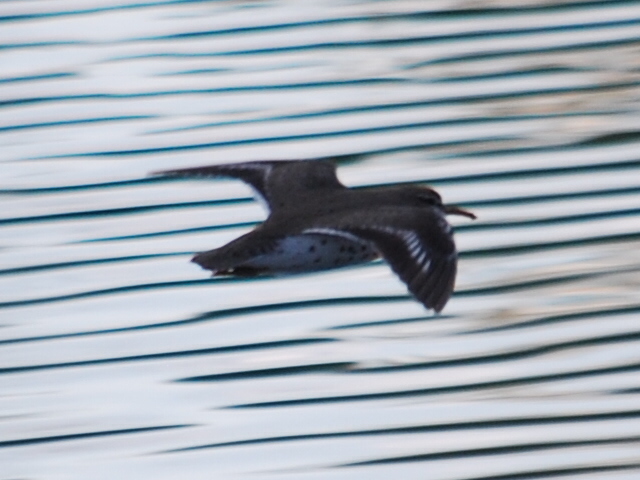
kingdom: Animalia
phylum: Chordata
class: Aves
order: Charadriiformes
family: Scolopacidae
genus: Actitis
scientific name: Actitis macularius
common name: Spotted sandpiper
